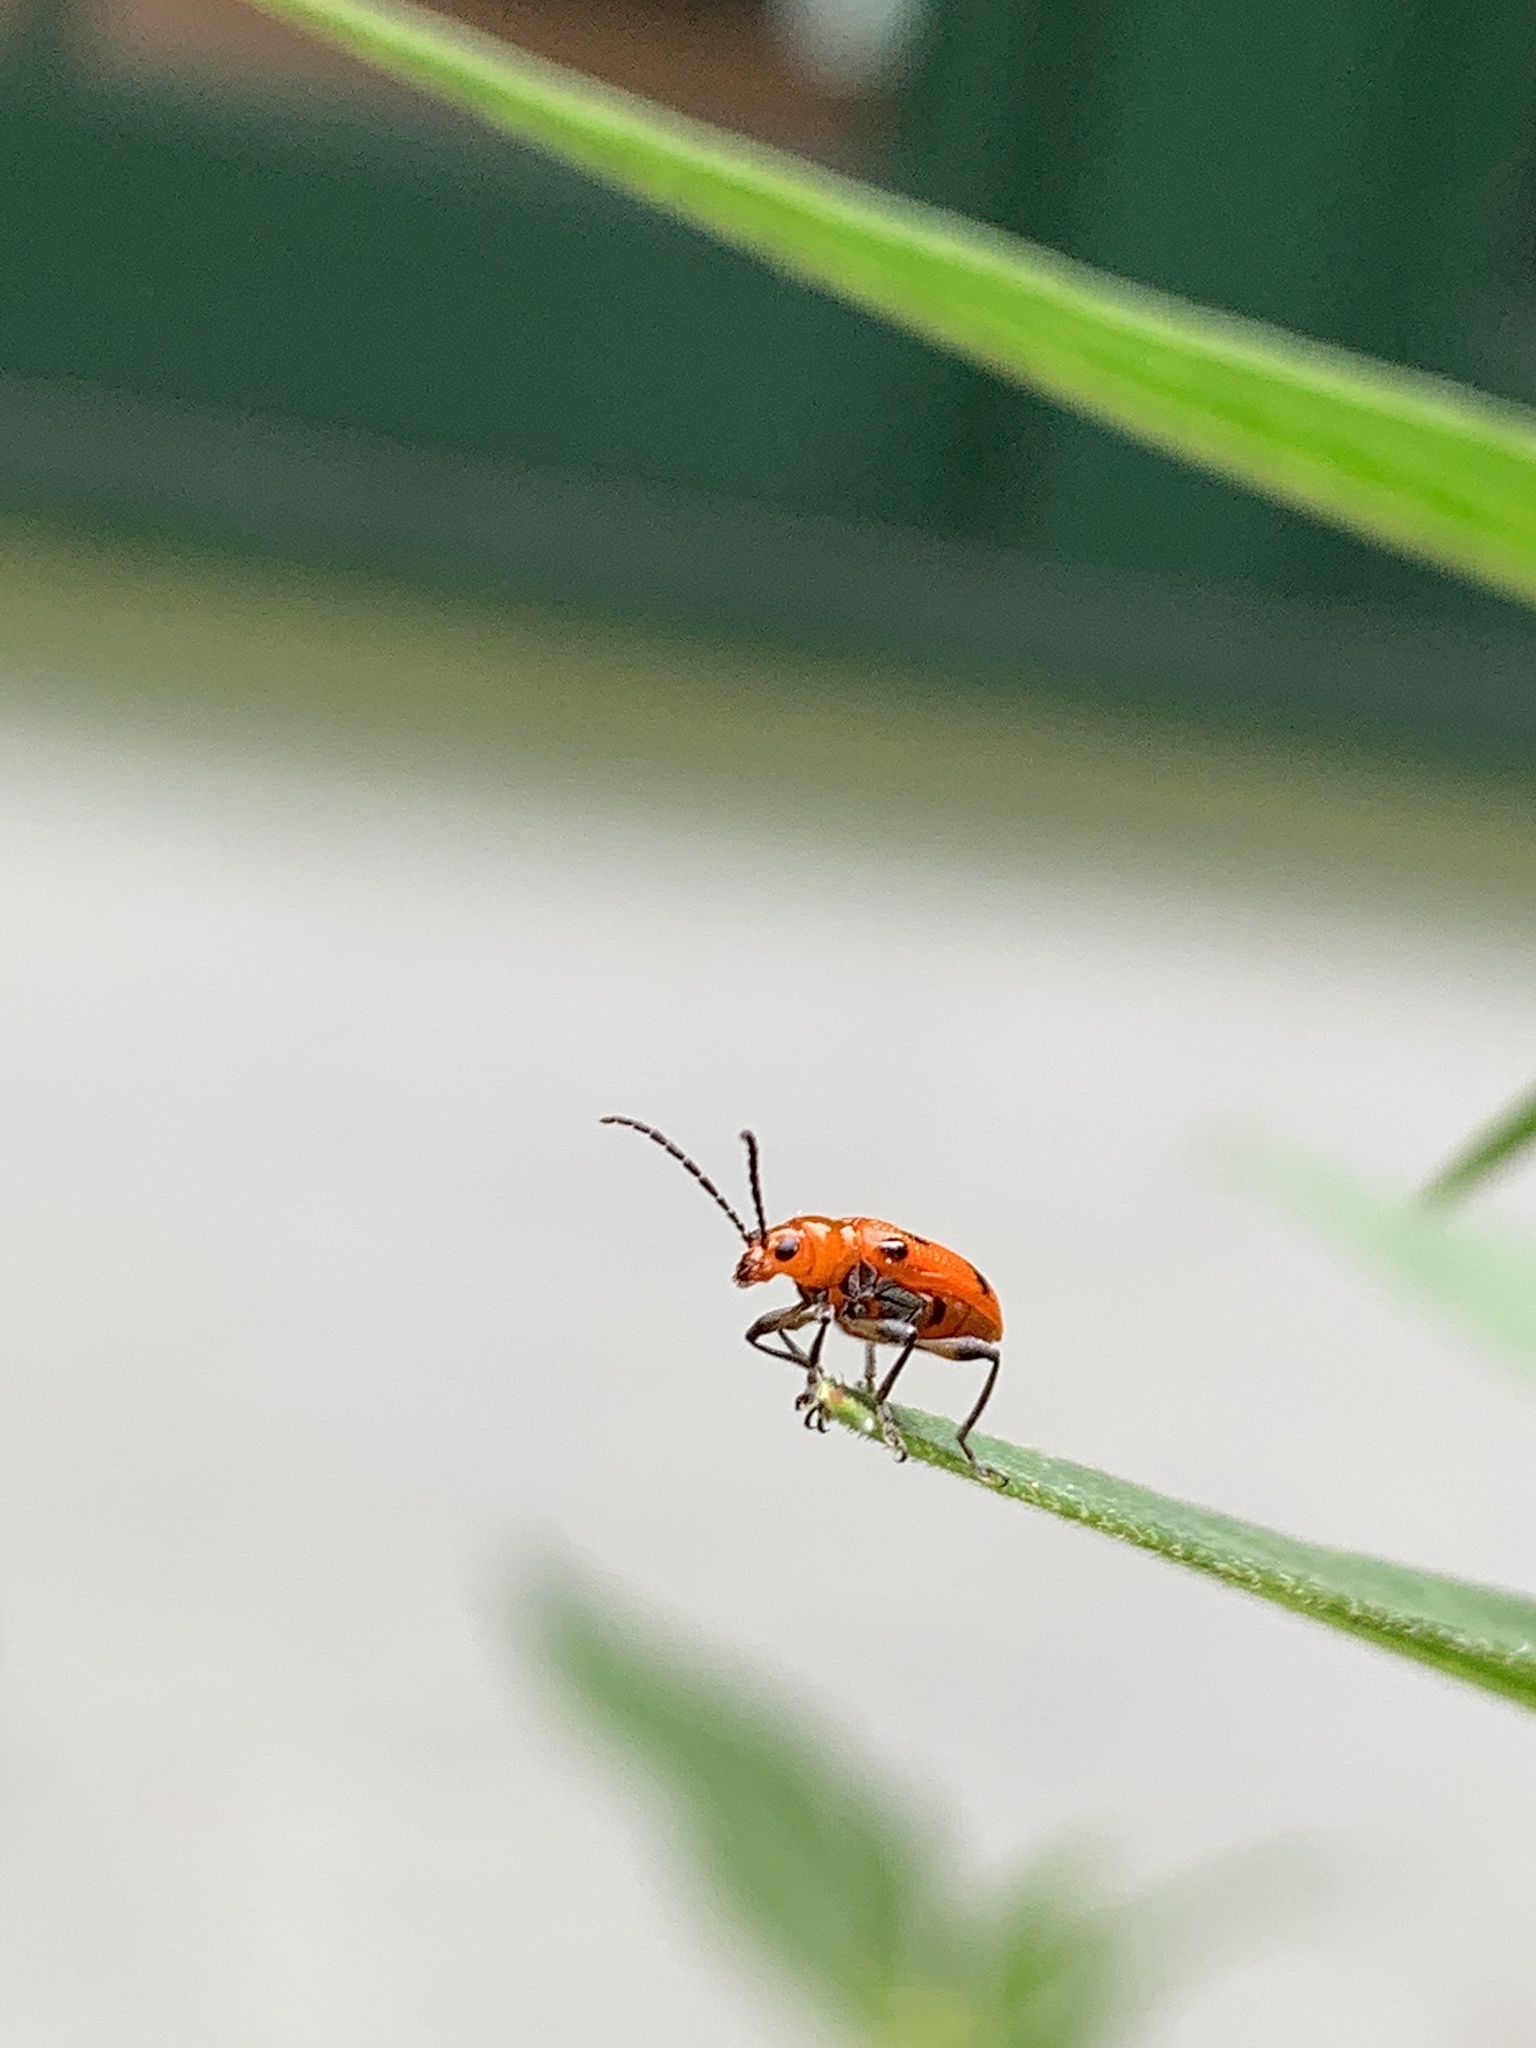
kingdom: Animalia
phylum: Arthropoda
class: Insecta
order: Coleoptera
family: Chrysomelidae
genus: Neolema
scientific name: Neolema sexpunctata
